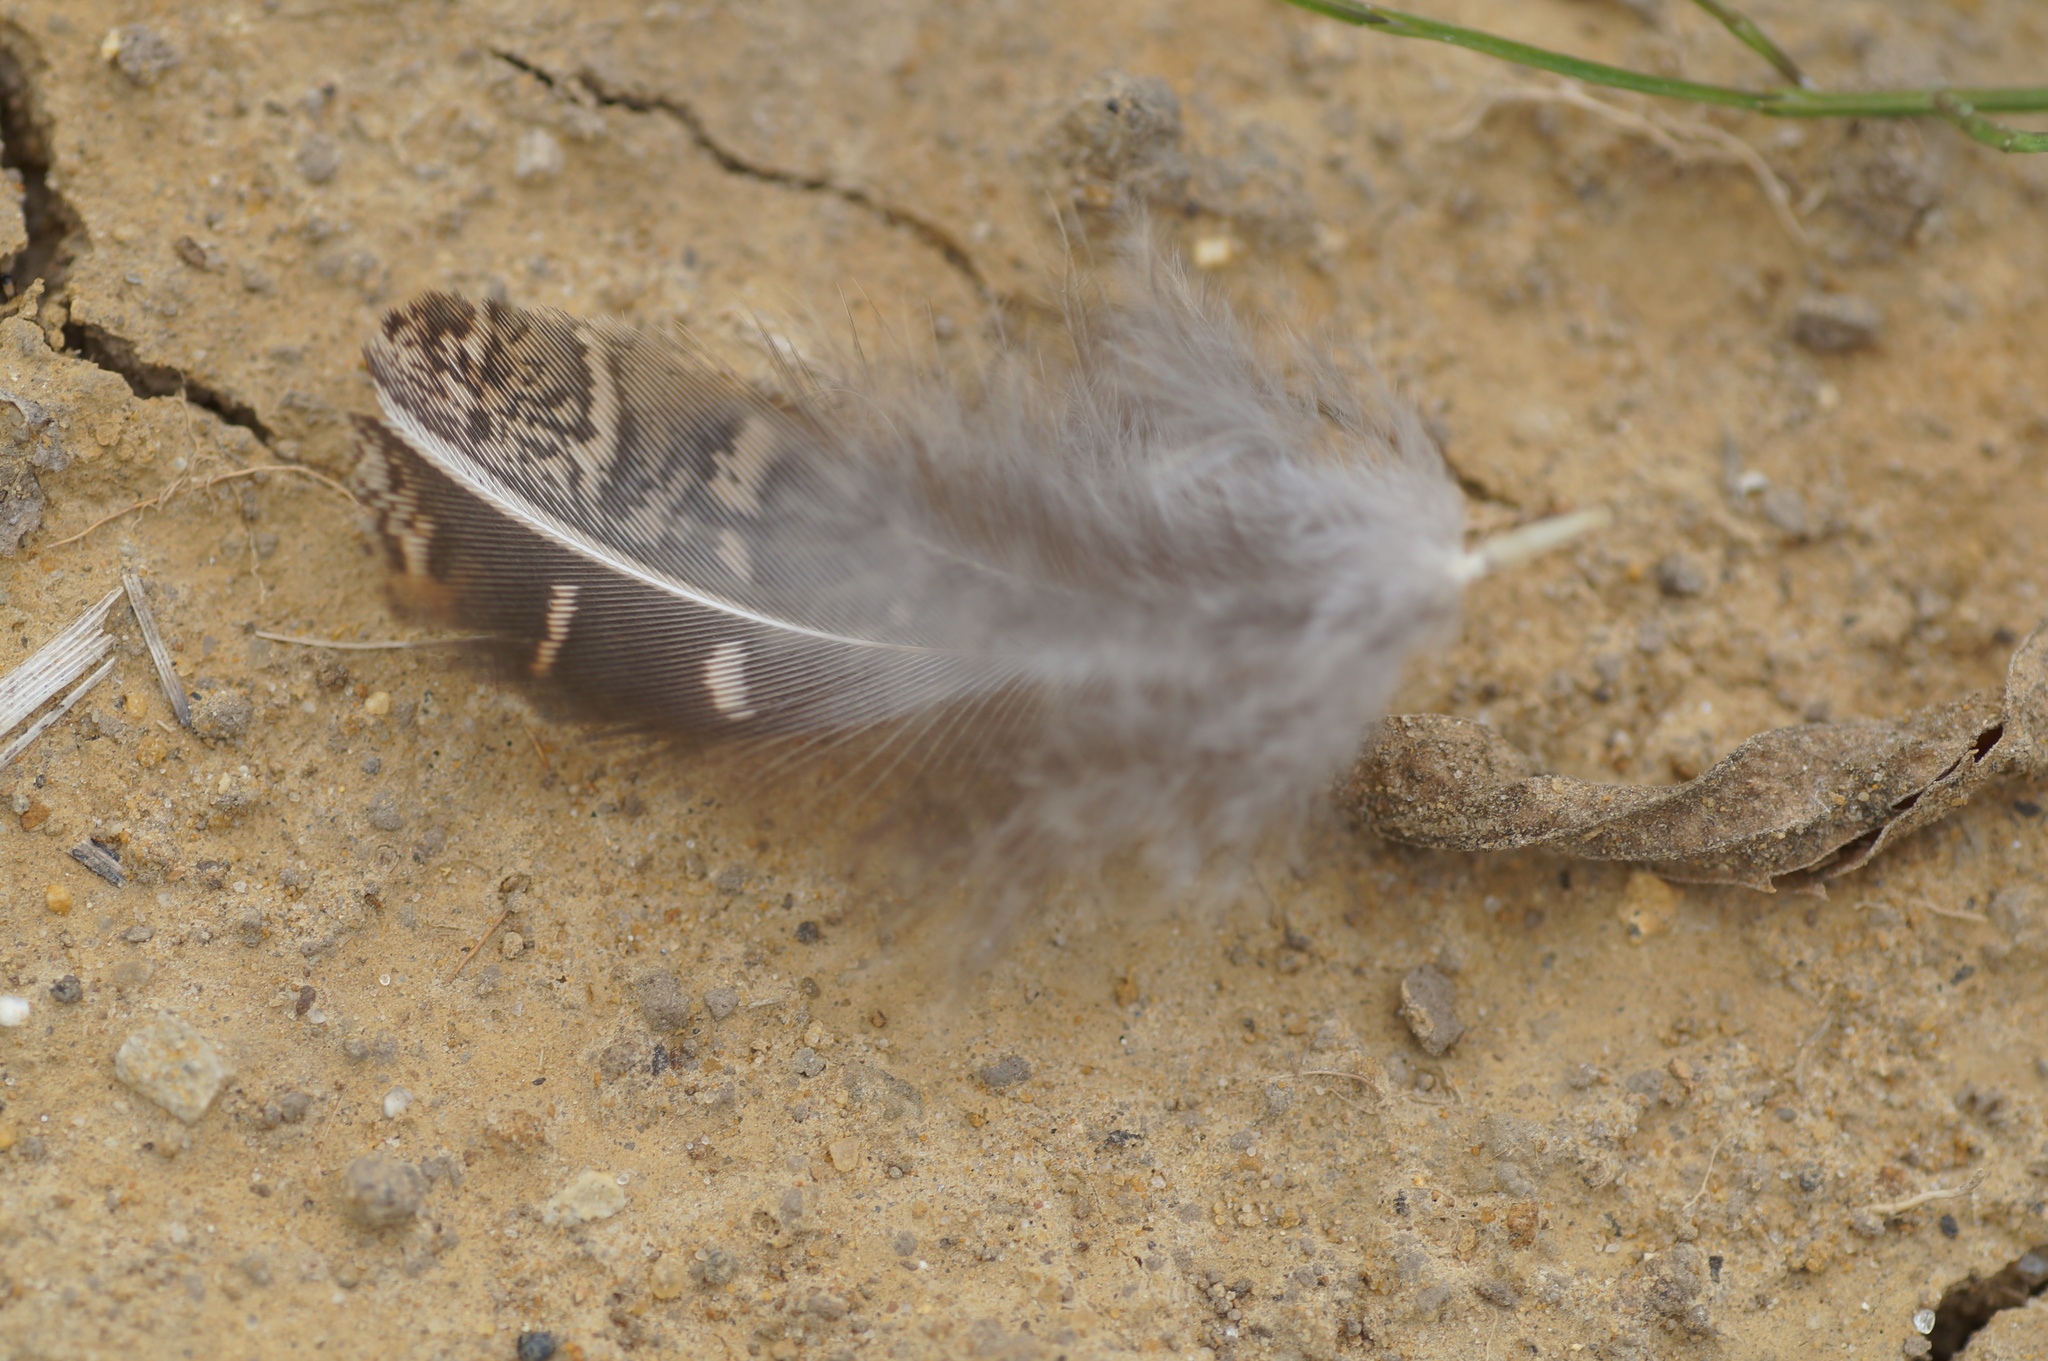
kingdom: Animalia
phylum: Chordata
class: Aves
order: Galliformes
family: Phasianidae
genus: Perdix
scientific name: Perdix perdix
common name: Grey partridge
